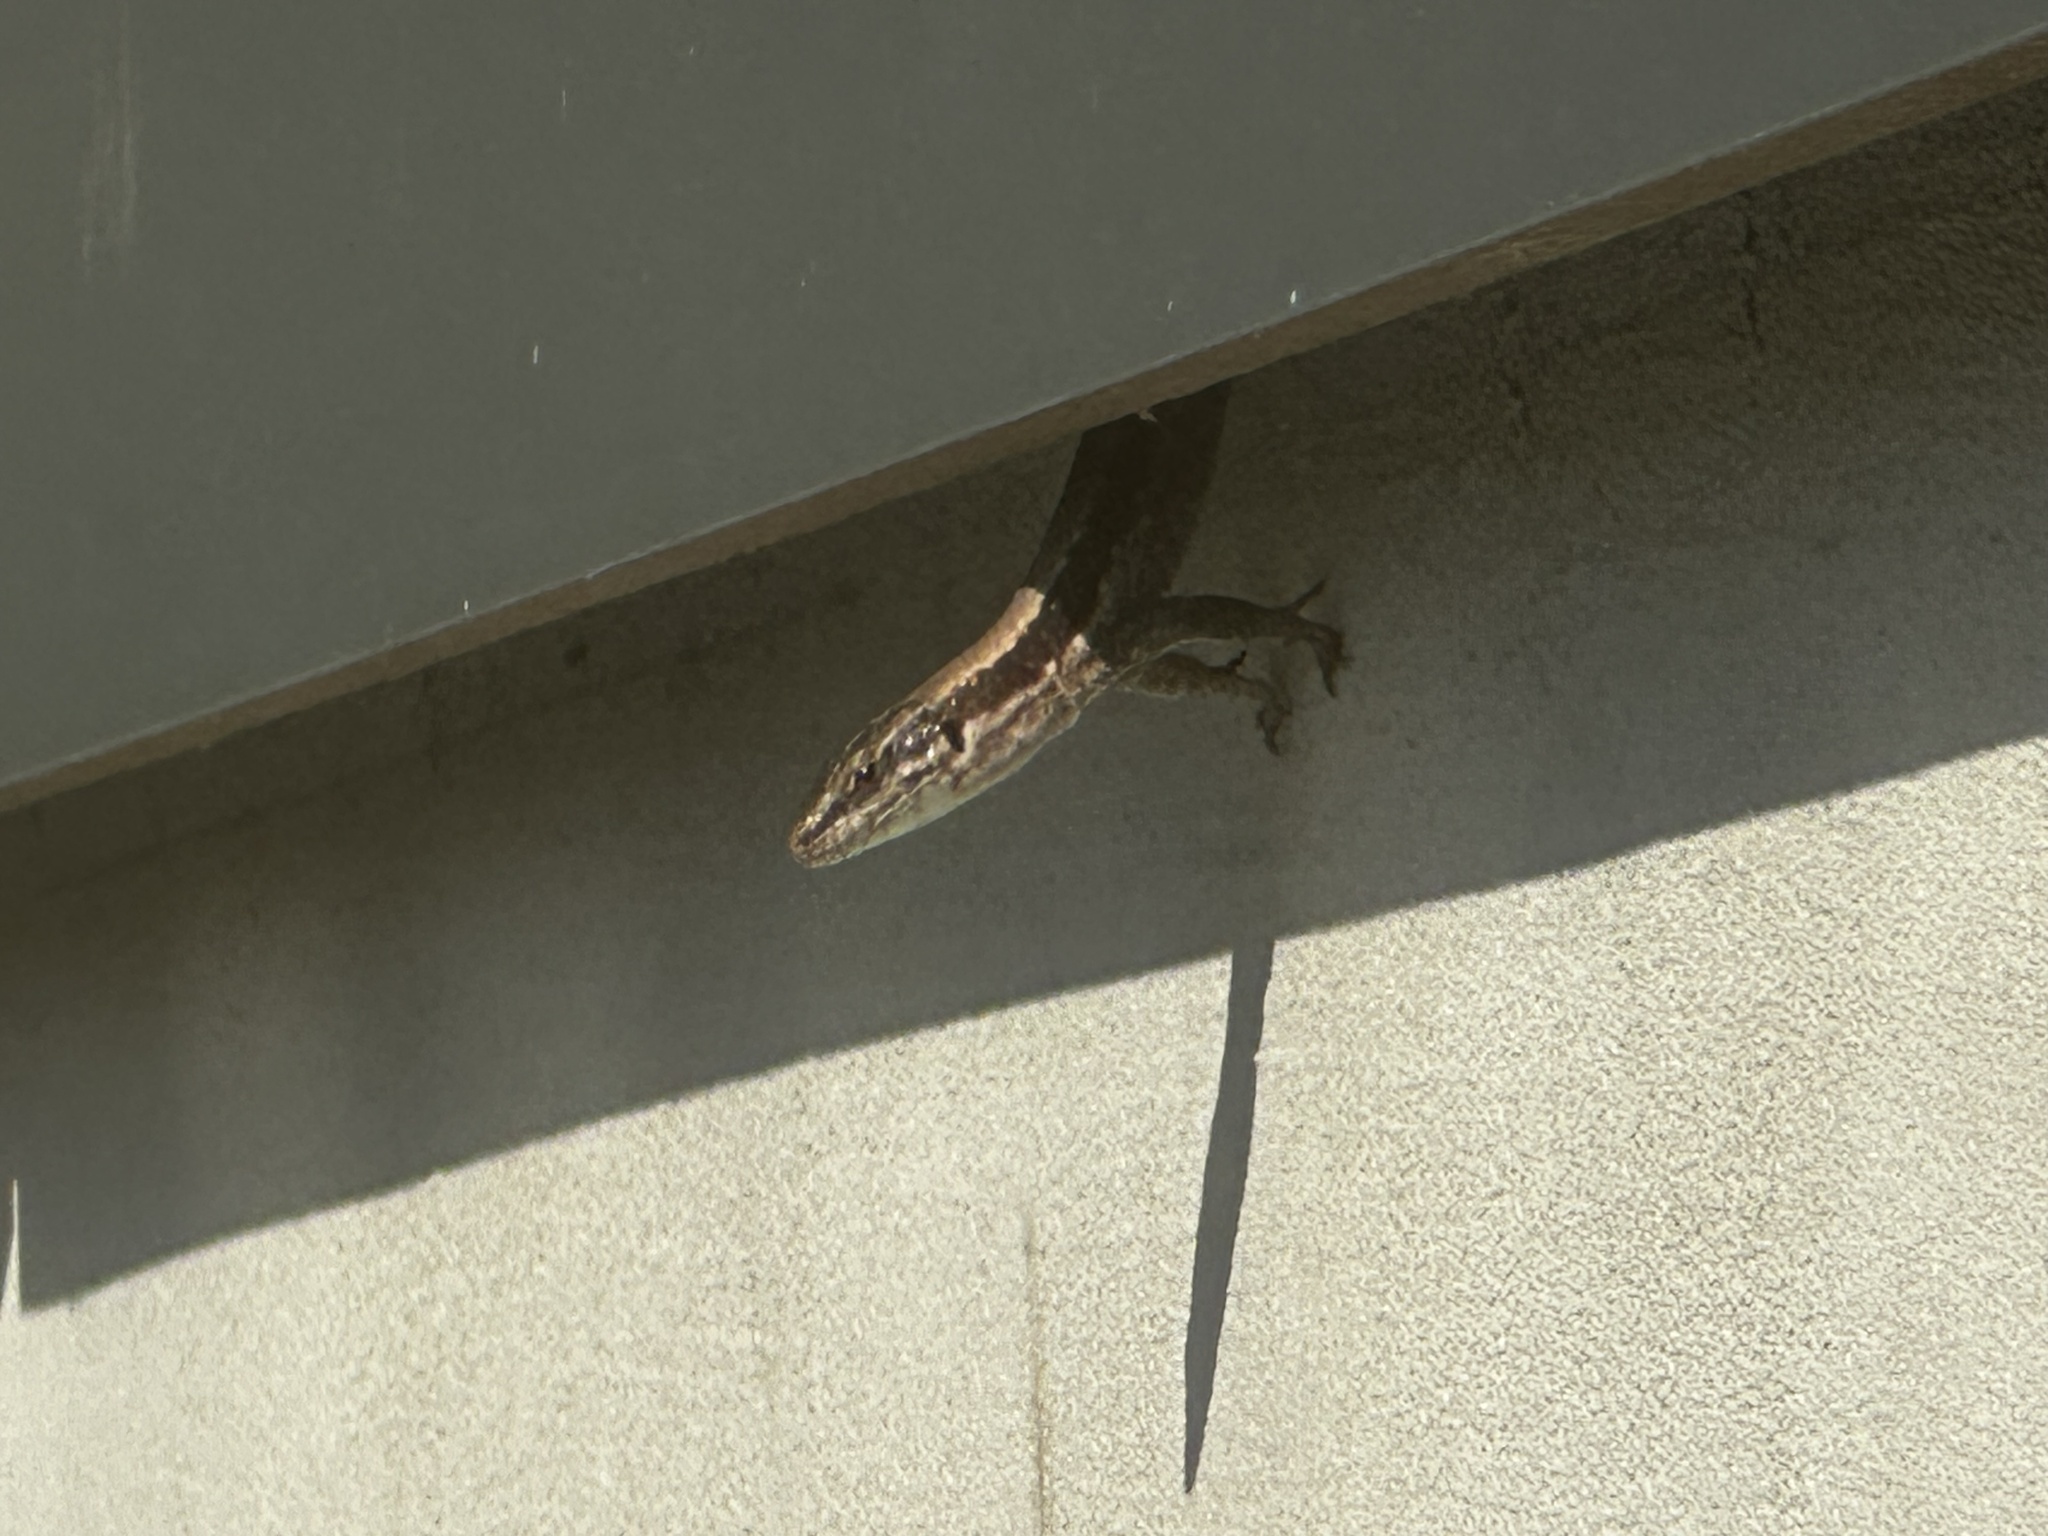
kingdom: Animalia
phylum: Chordata
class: Squamata
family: Lacertidae
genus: Podarcis
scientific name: Podarcis muralis
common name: Common wall lizard
